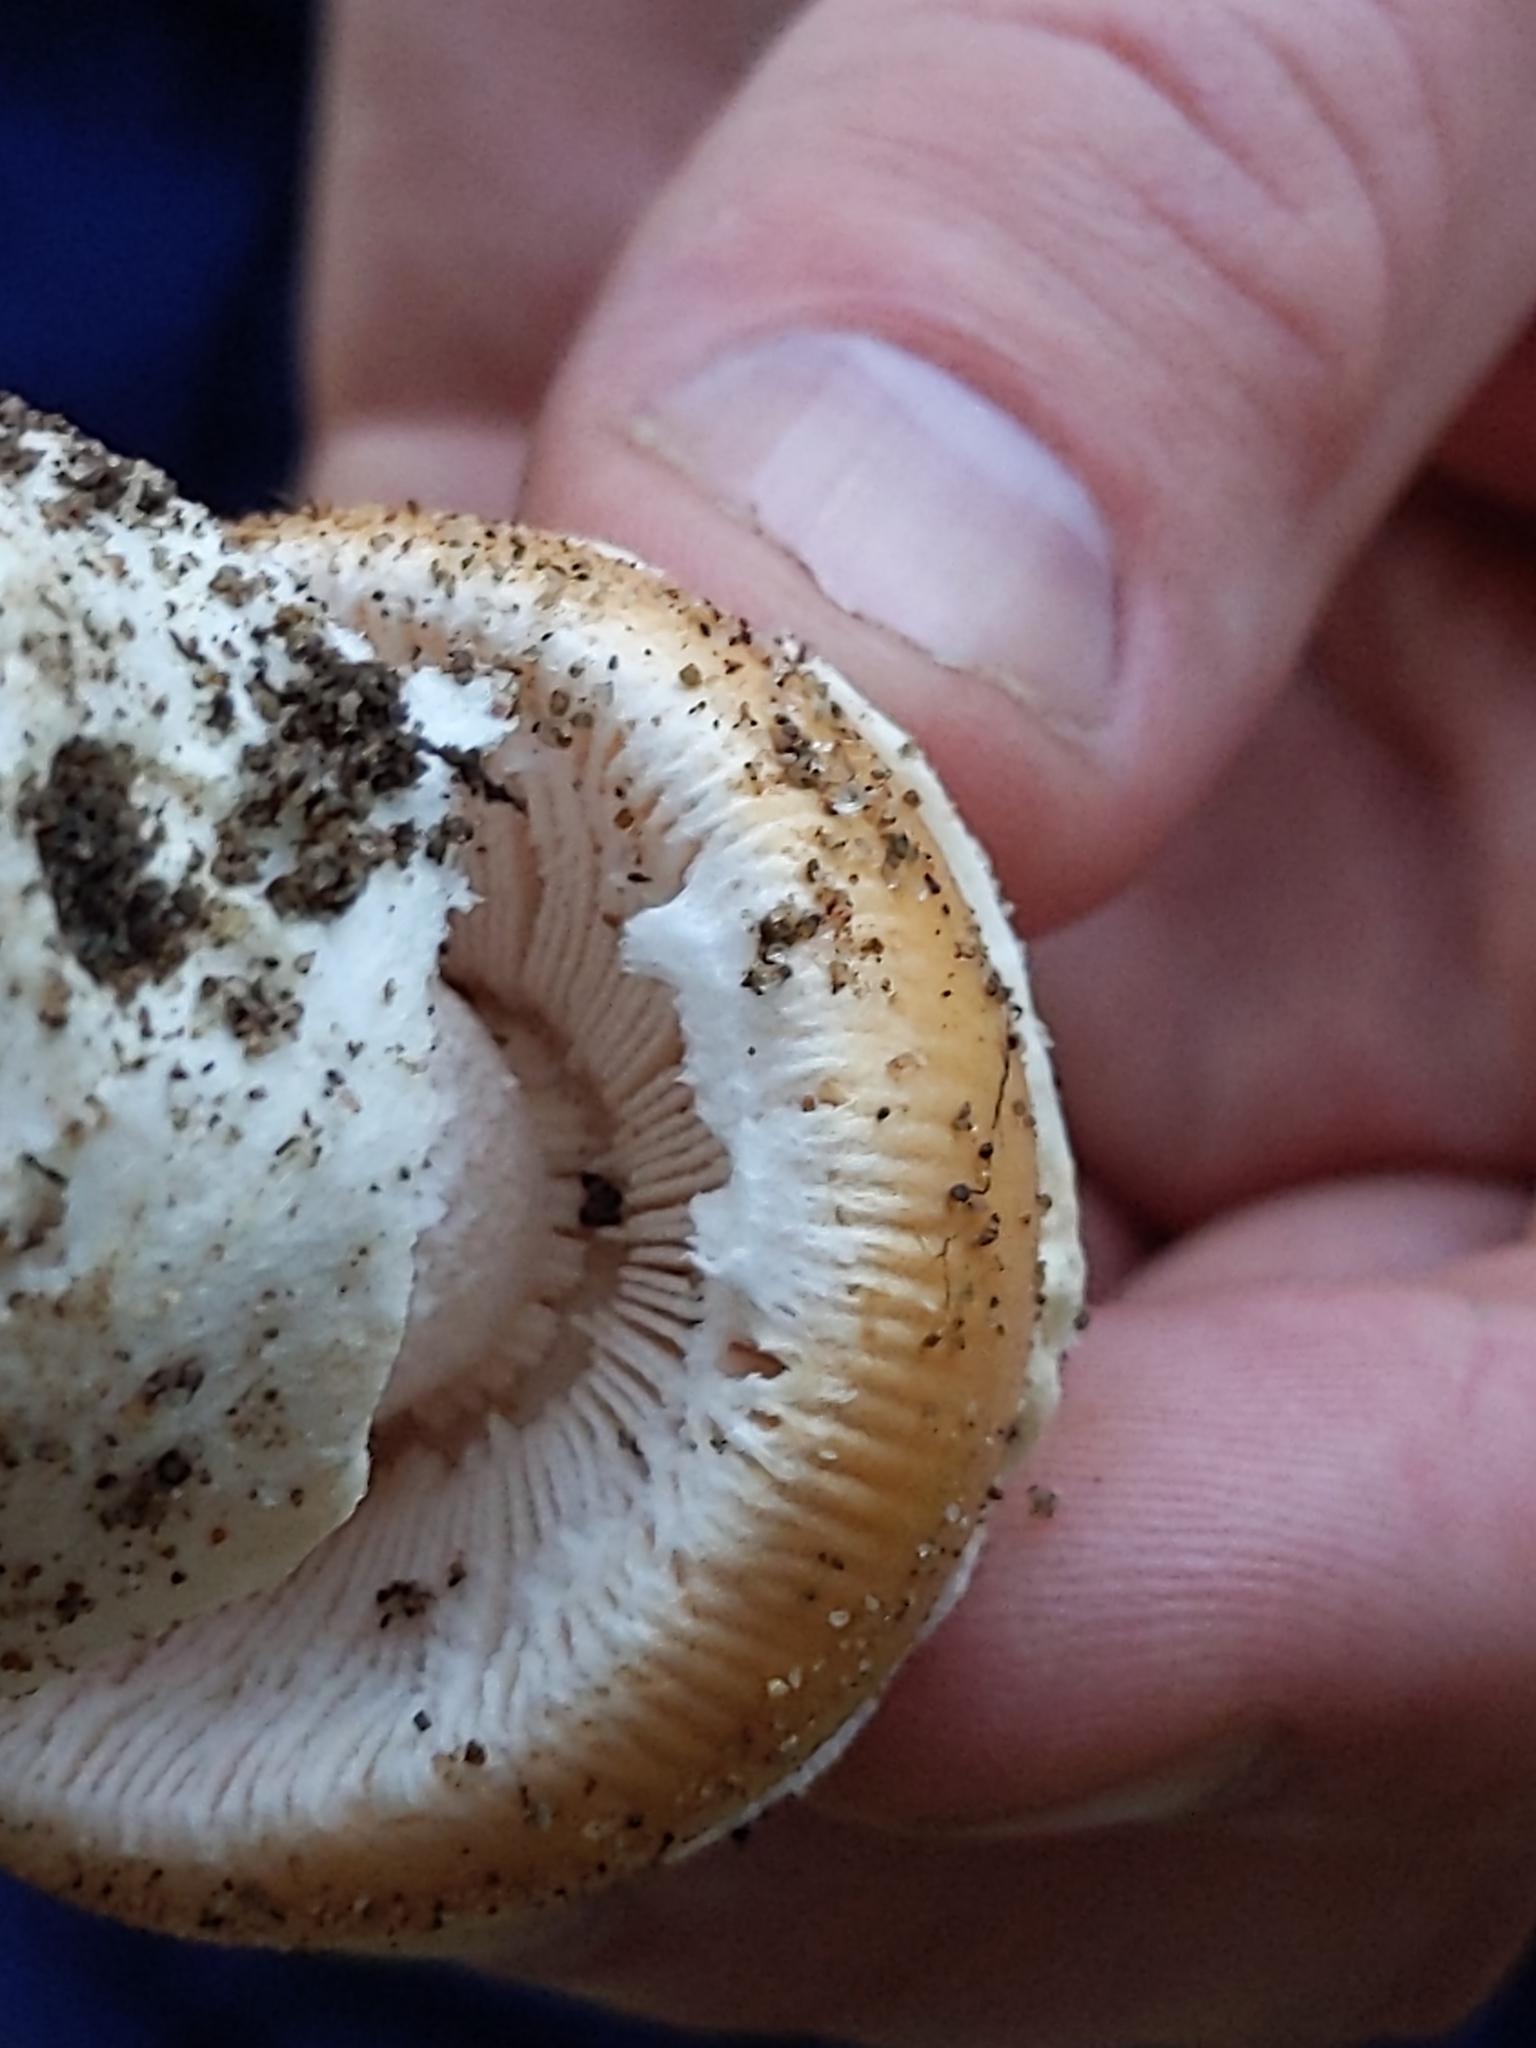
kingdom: Fungi
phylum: Basidiomycota
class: Agaricomycetes
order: Agaricales
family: Amanitaceae
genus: Amanita
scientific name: Amanita velosa
